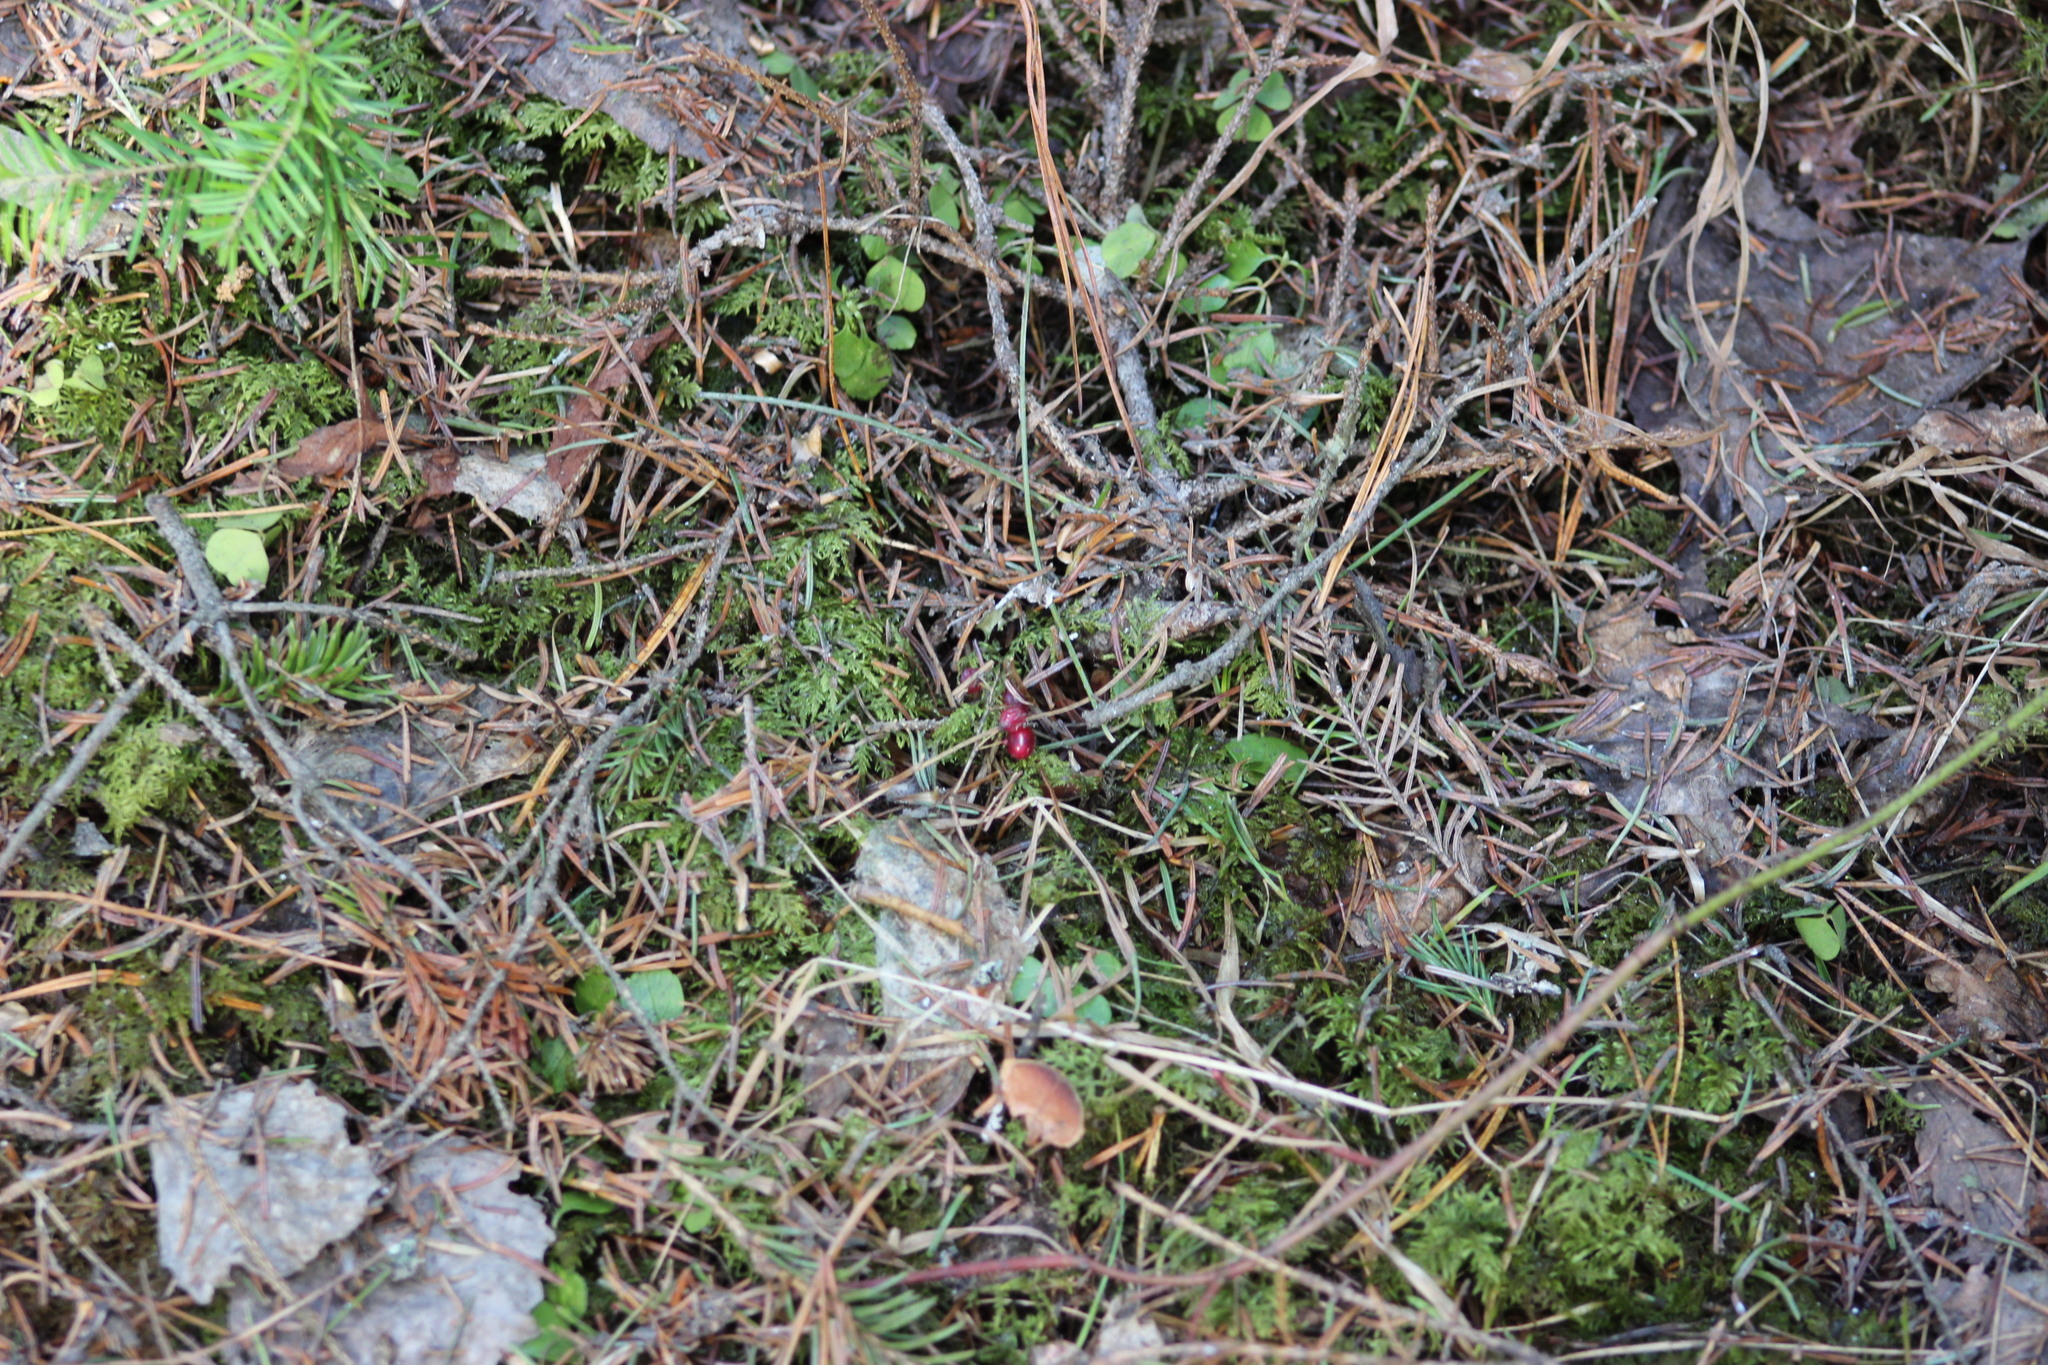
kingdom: Plantae
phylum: Tracheophyta
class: Liliopsida
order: Asparagales
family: Asparagaceae
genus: Maianthemum
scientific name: Maianthemum bifolium
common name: May lily
